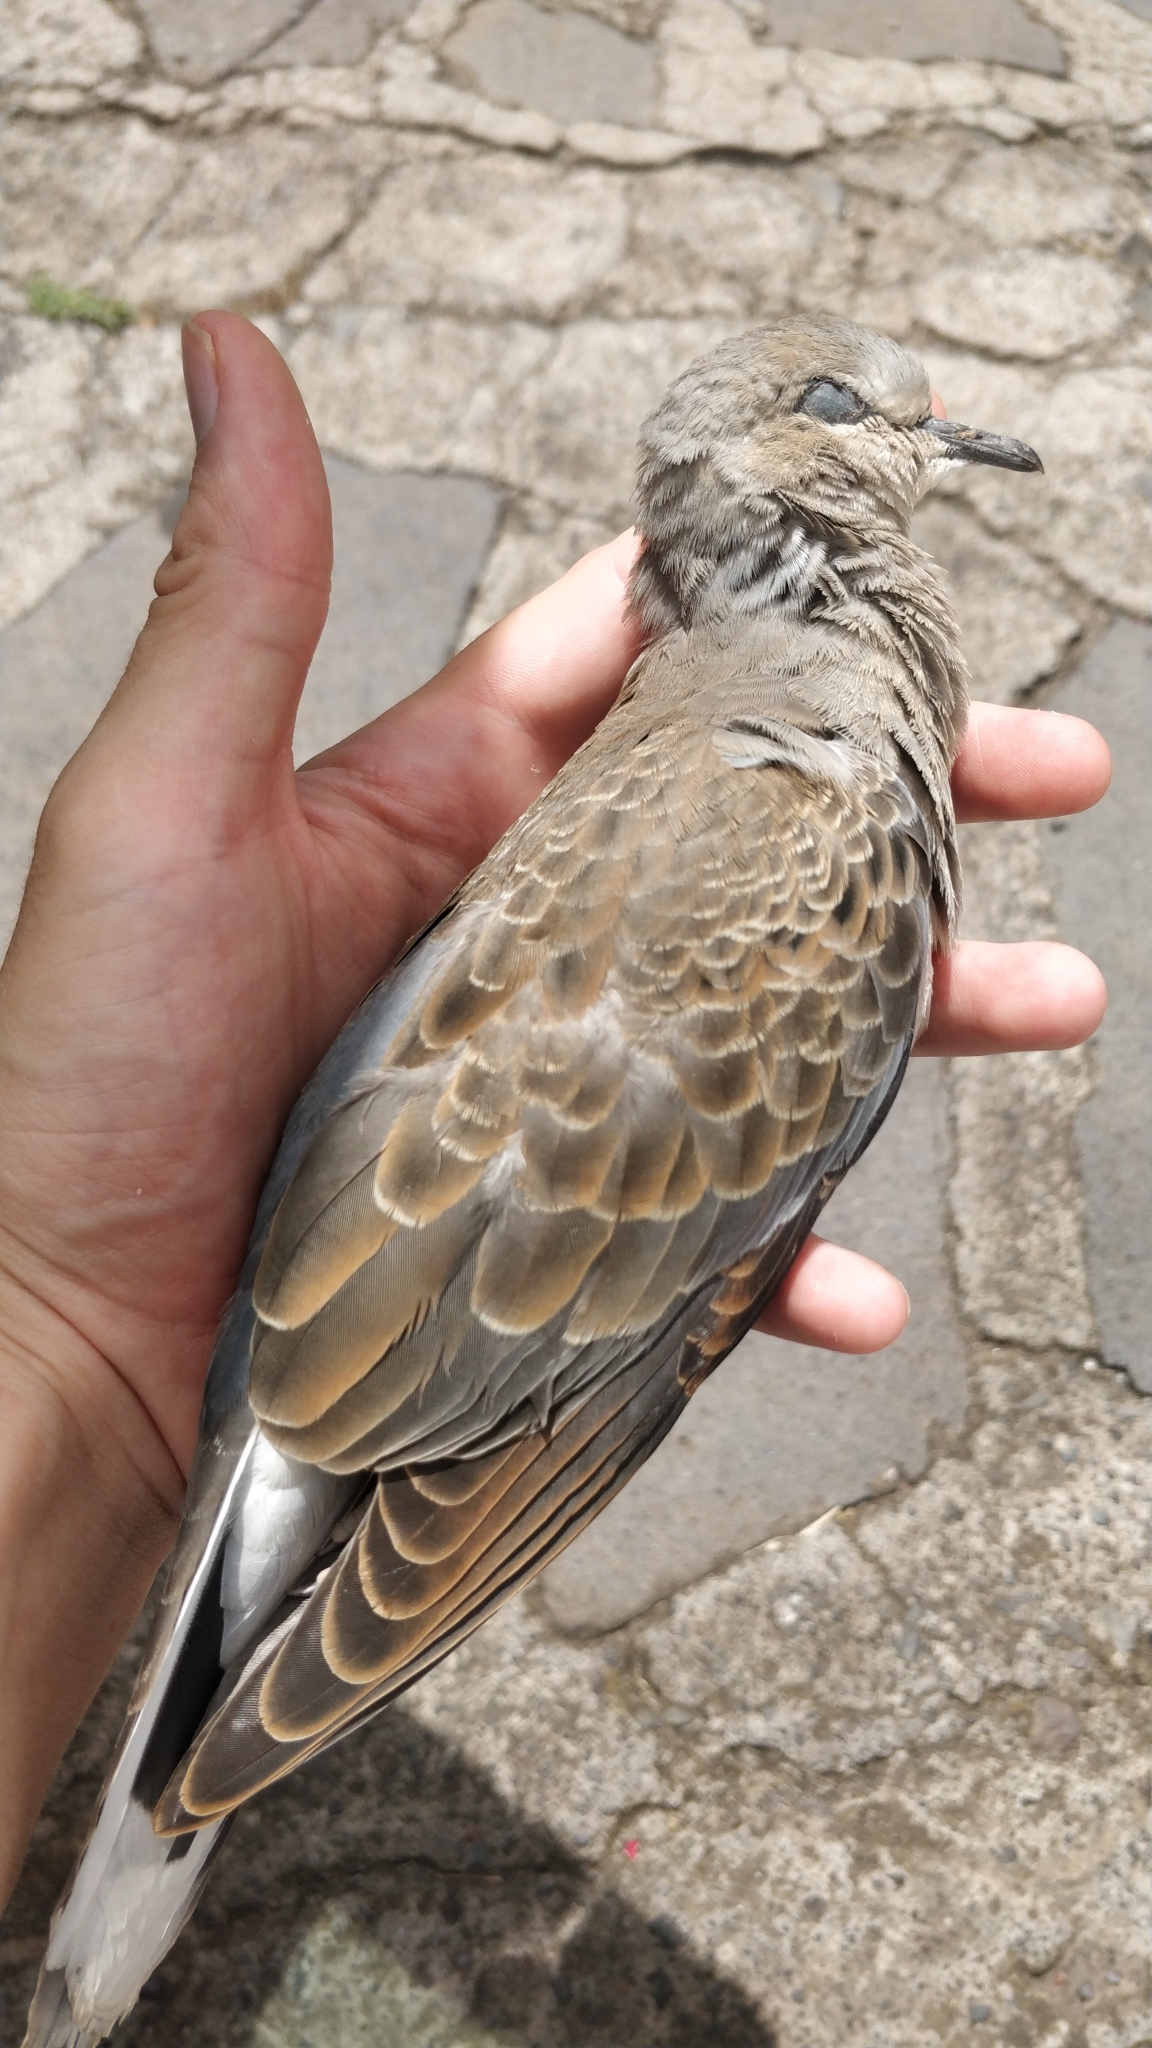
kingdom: Animalia
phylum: Chordata
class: Aves
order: Columbiformes
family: Columbidae
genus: Streptopelia
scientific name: Streptopelia turtur
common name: European turtle dove
